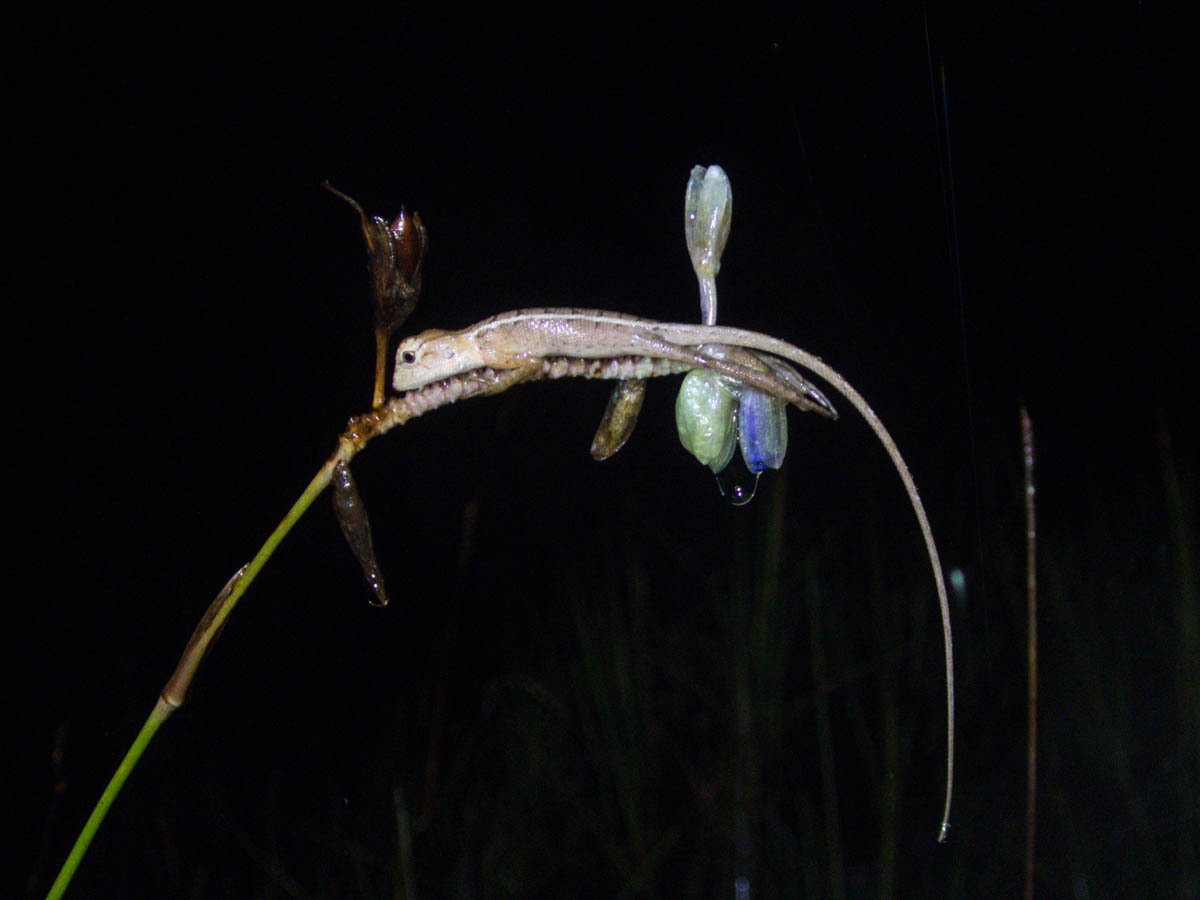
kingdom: Plantae
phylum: Tracheophyta
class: Liliopsida
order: Commelinales
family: Commelinaceae
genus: Murdannia
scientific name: Murdannia macrocarpa
